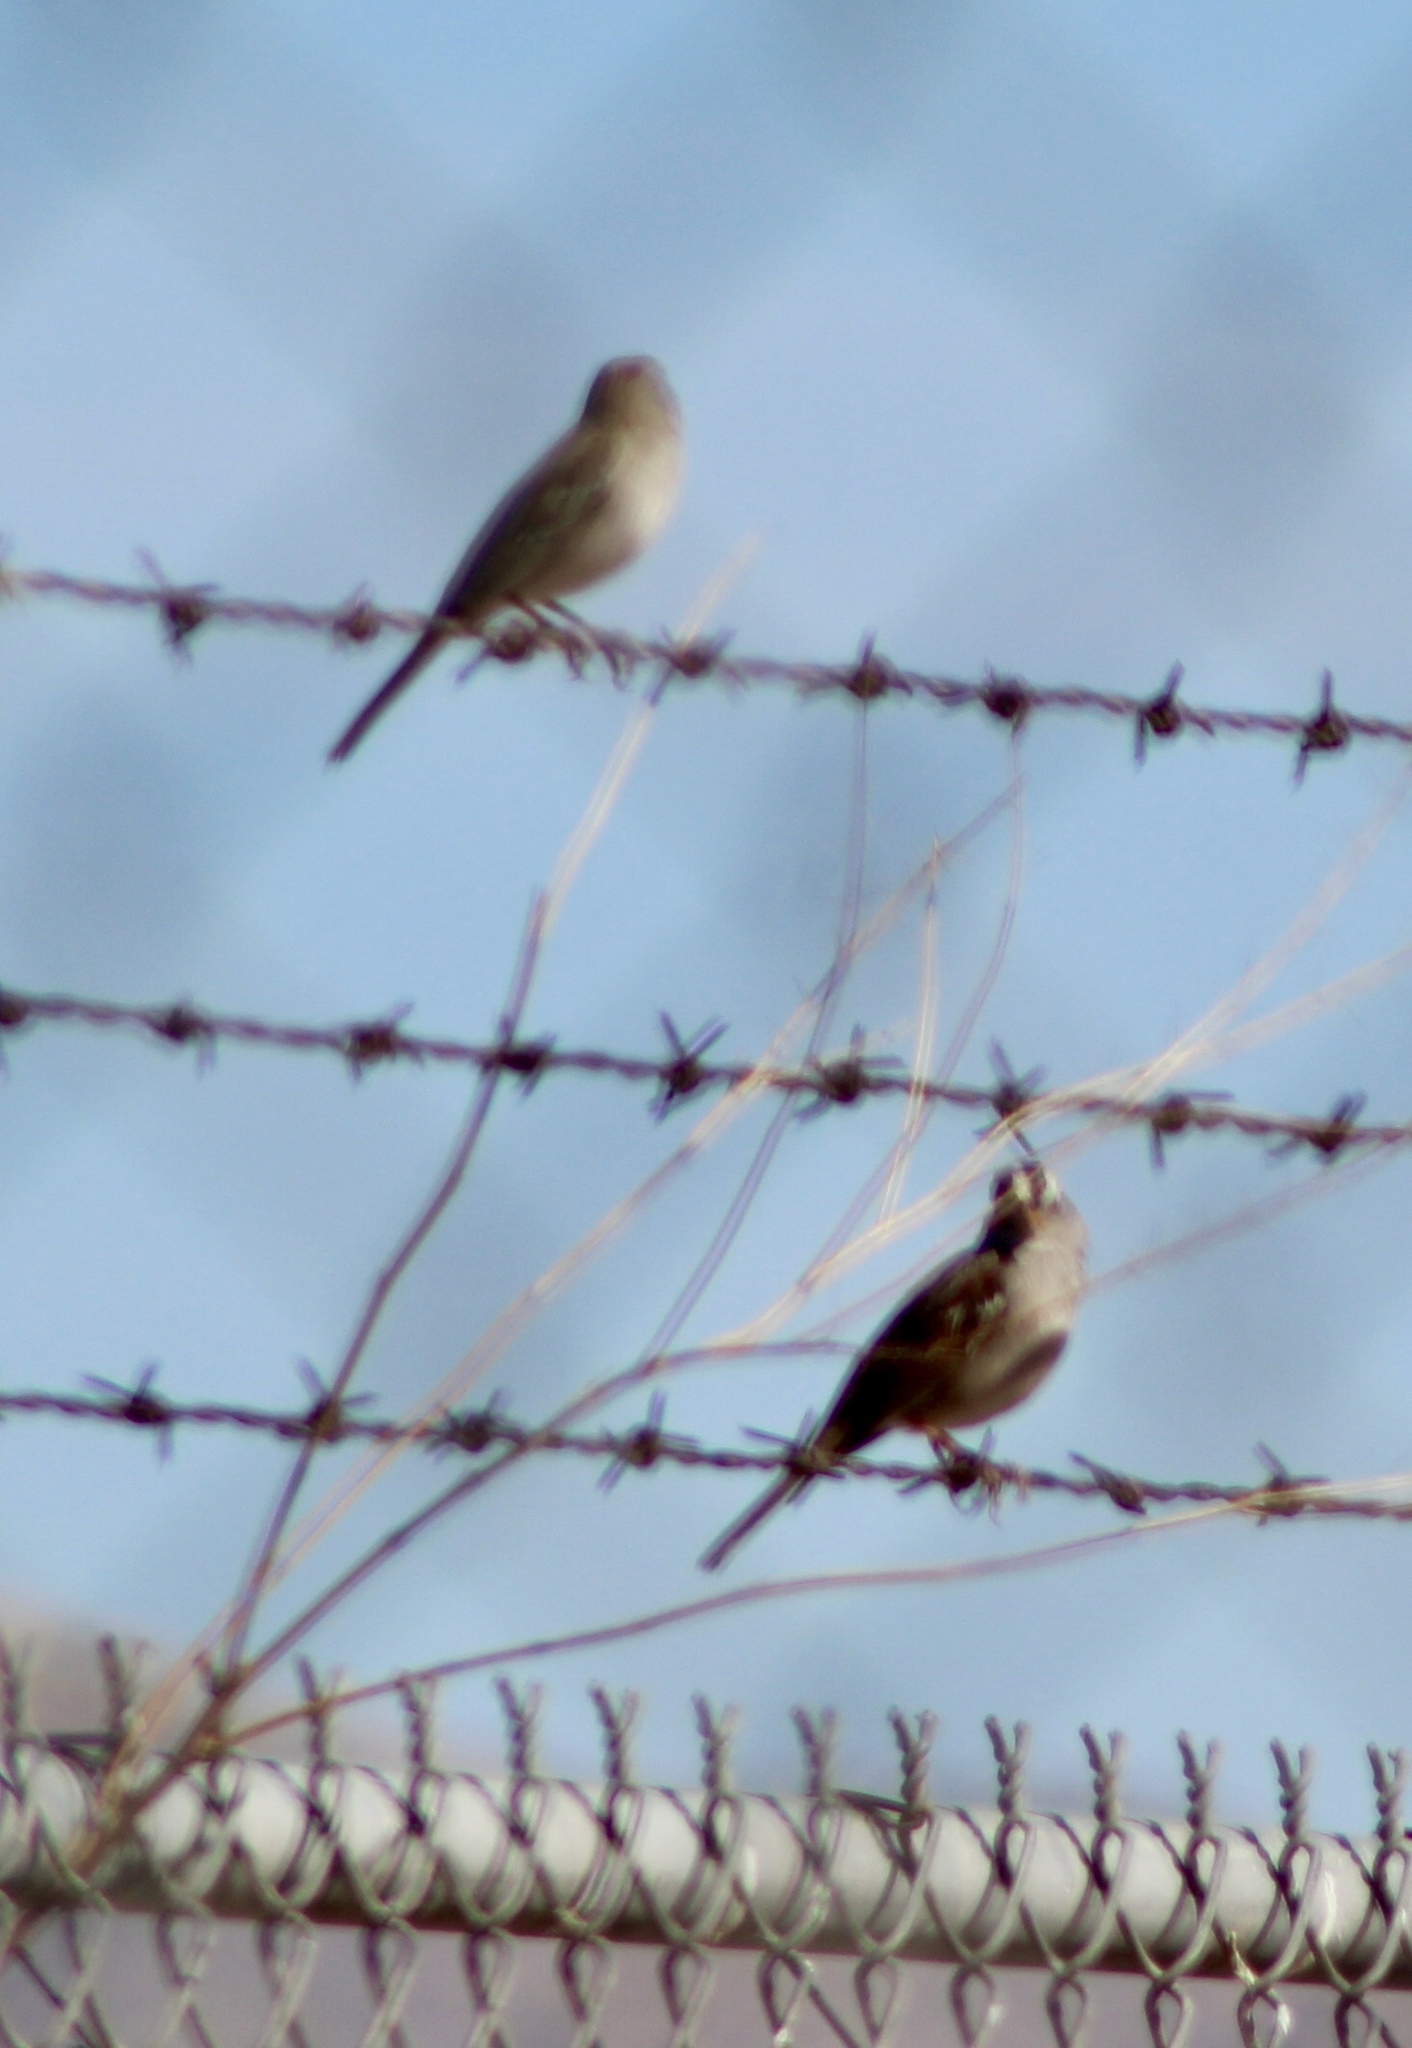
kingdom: Animalia
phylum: Chordata
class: Aves
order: Passeriformes
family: Passerellidae
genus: Zonotrichia
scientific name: Zonotrichia leucophrys
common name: White-crowned sparrow
